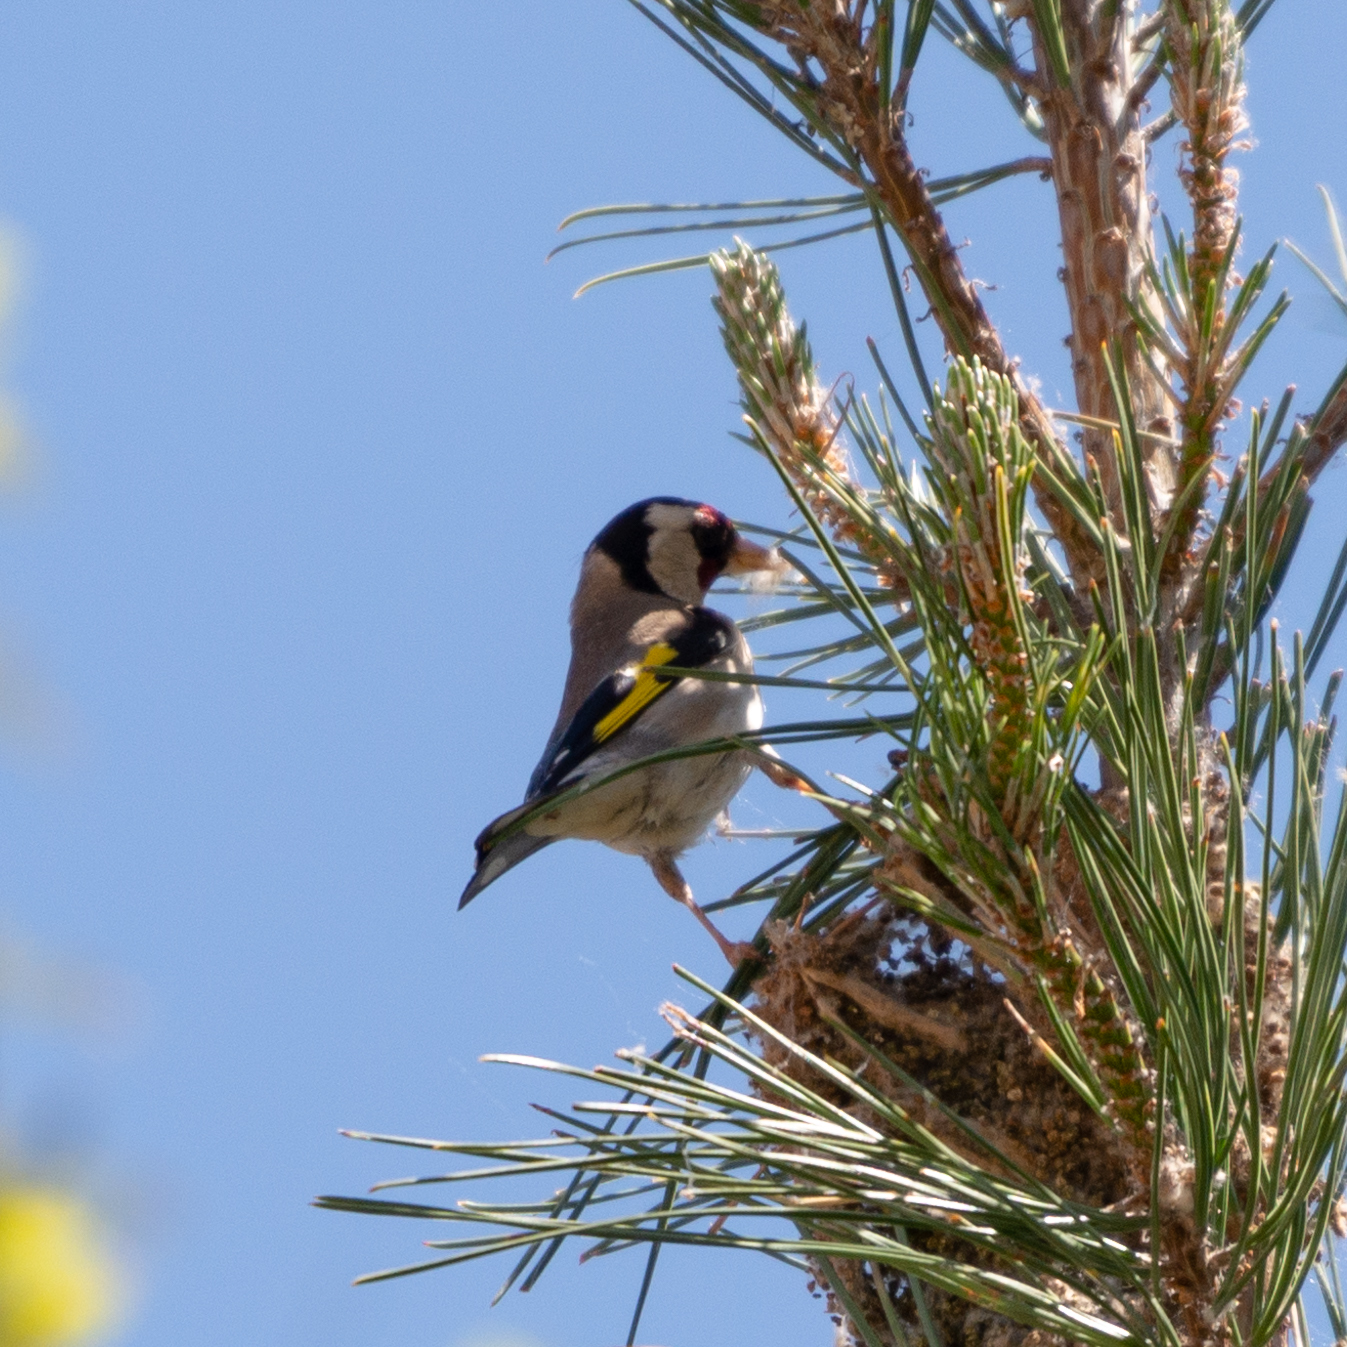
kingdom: Animalia
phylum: Chordata
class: Aves
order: Passeriformes
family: Fringillidae
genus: Carduelis
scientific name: Carduelis carduelis
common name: European goldfinch
